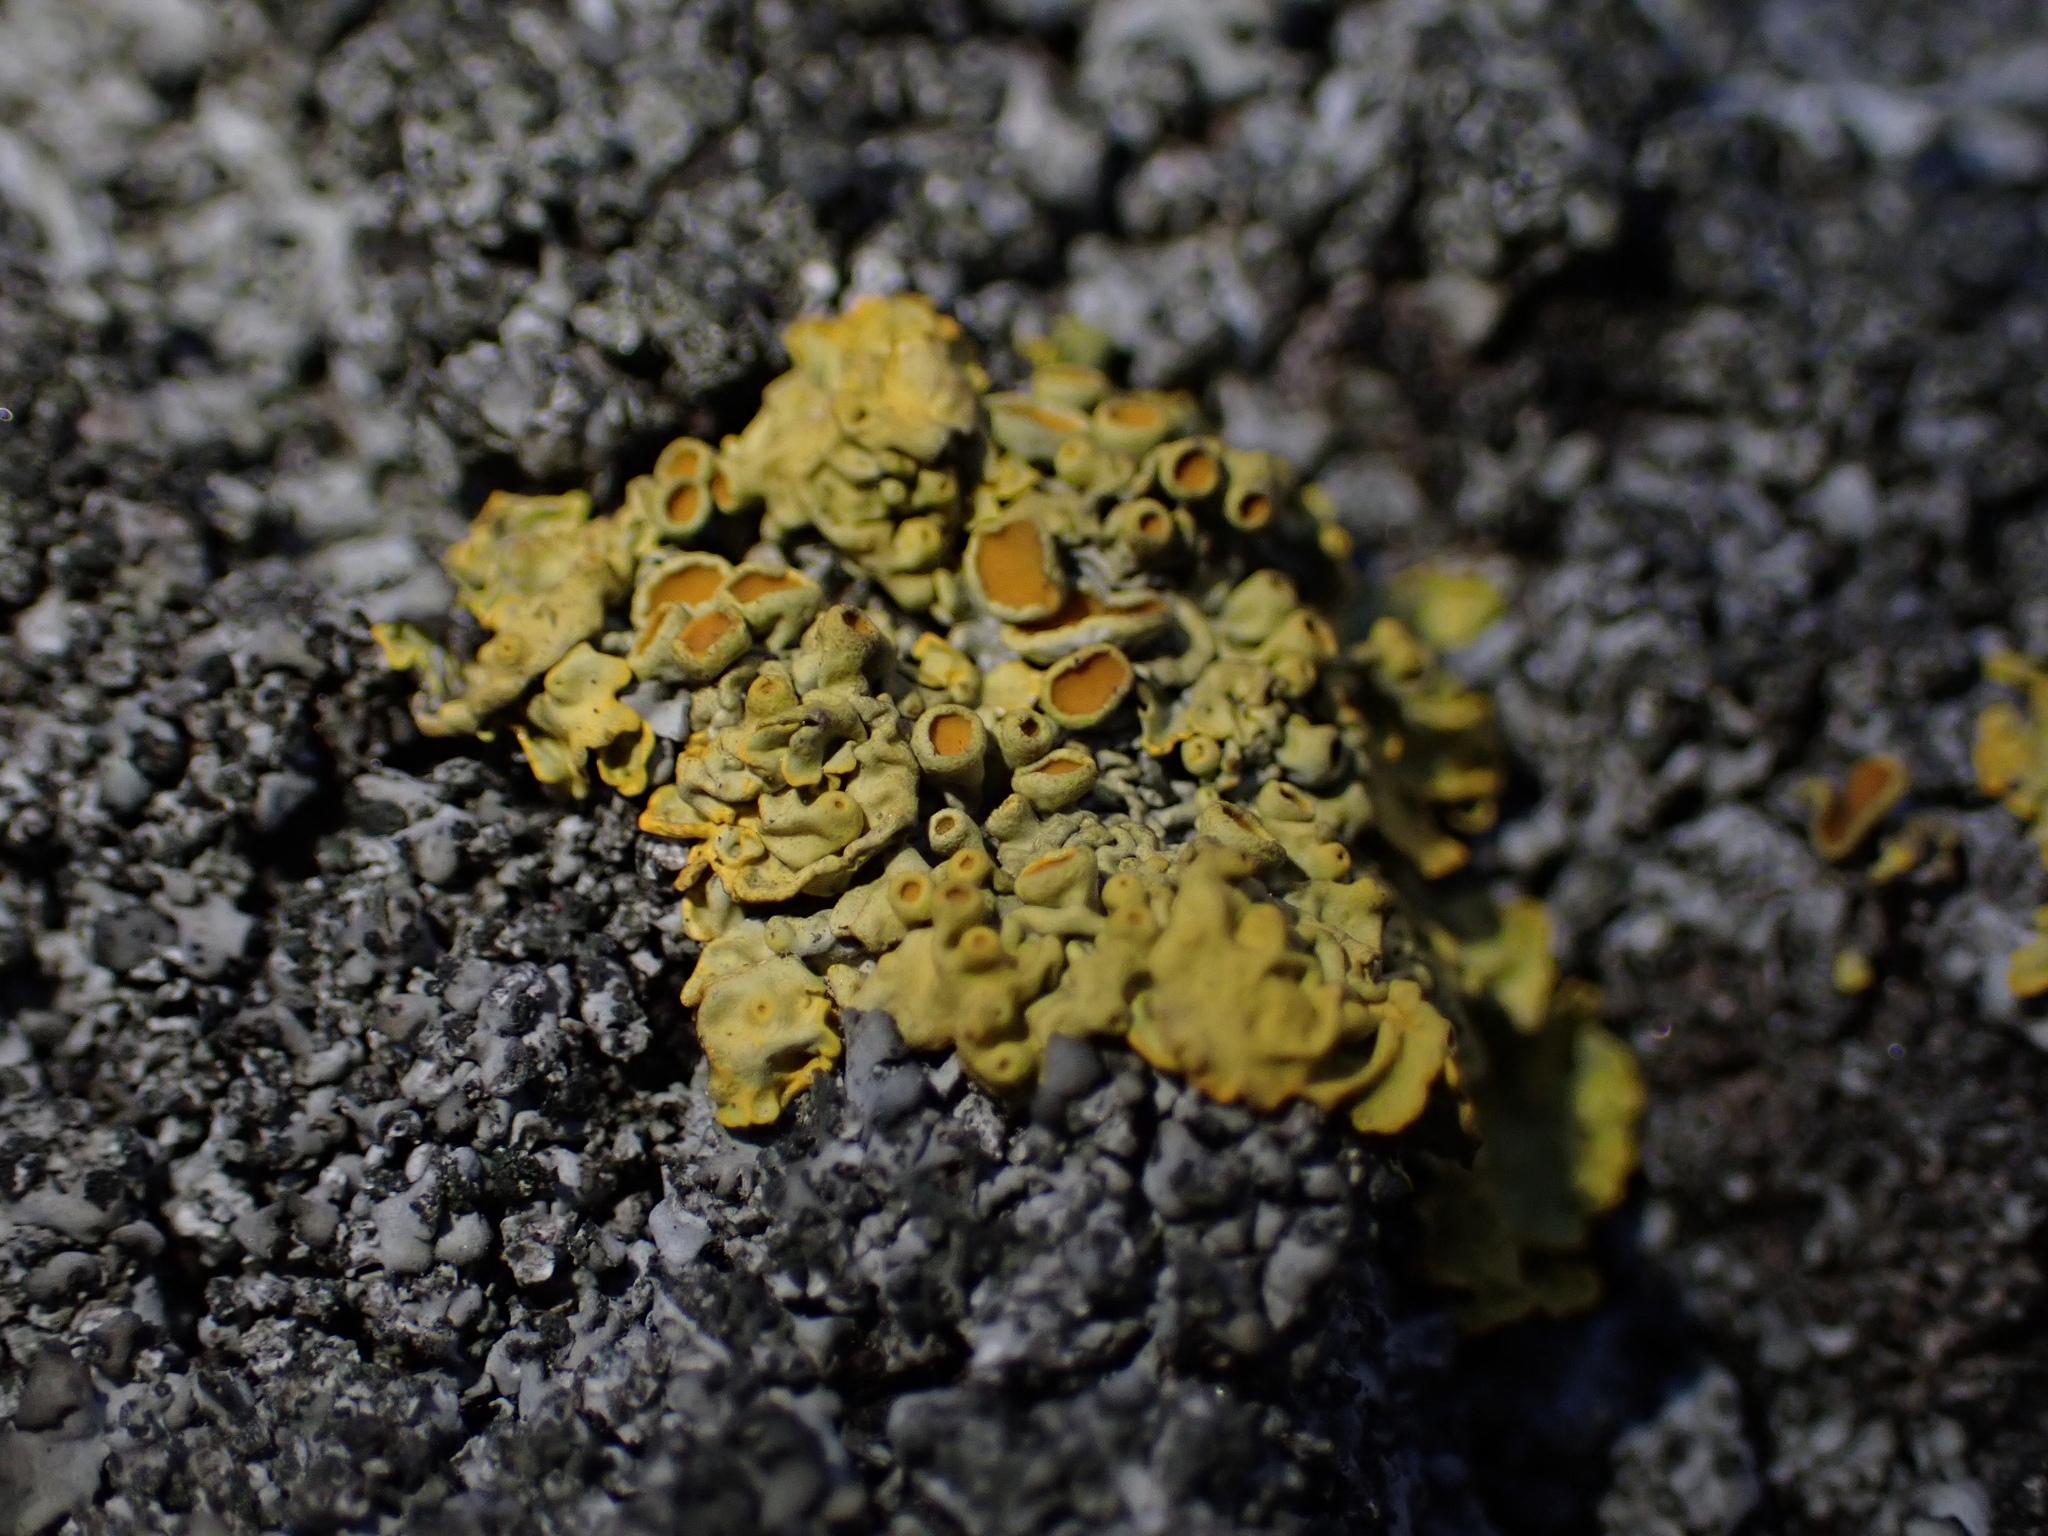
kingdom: Fungi
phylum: Ascomycota
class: Lecanoromycetes
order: Teloschistales
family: Teloschistaceae
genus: Xanthoria
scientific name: Xanthoria parietina
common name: Common orange lichen
